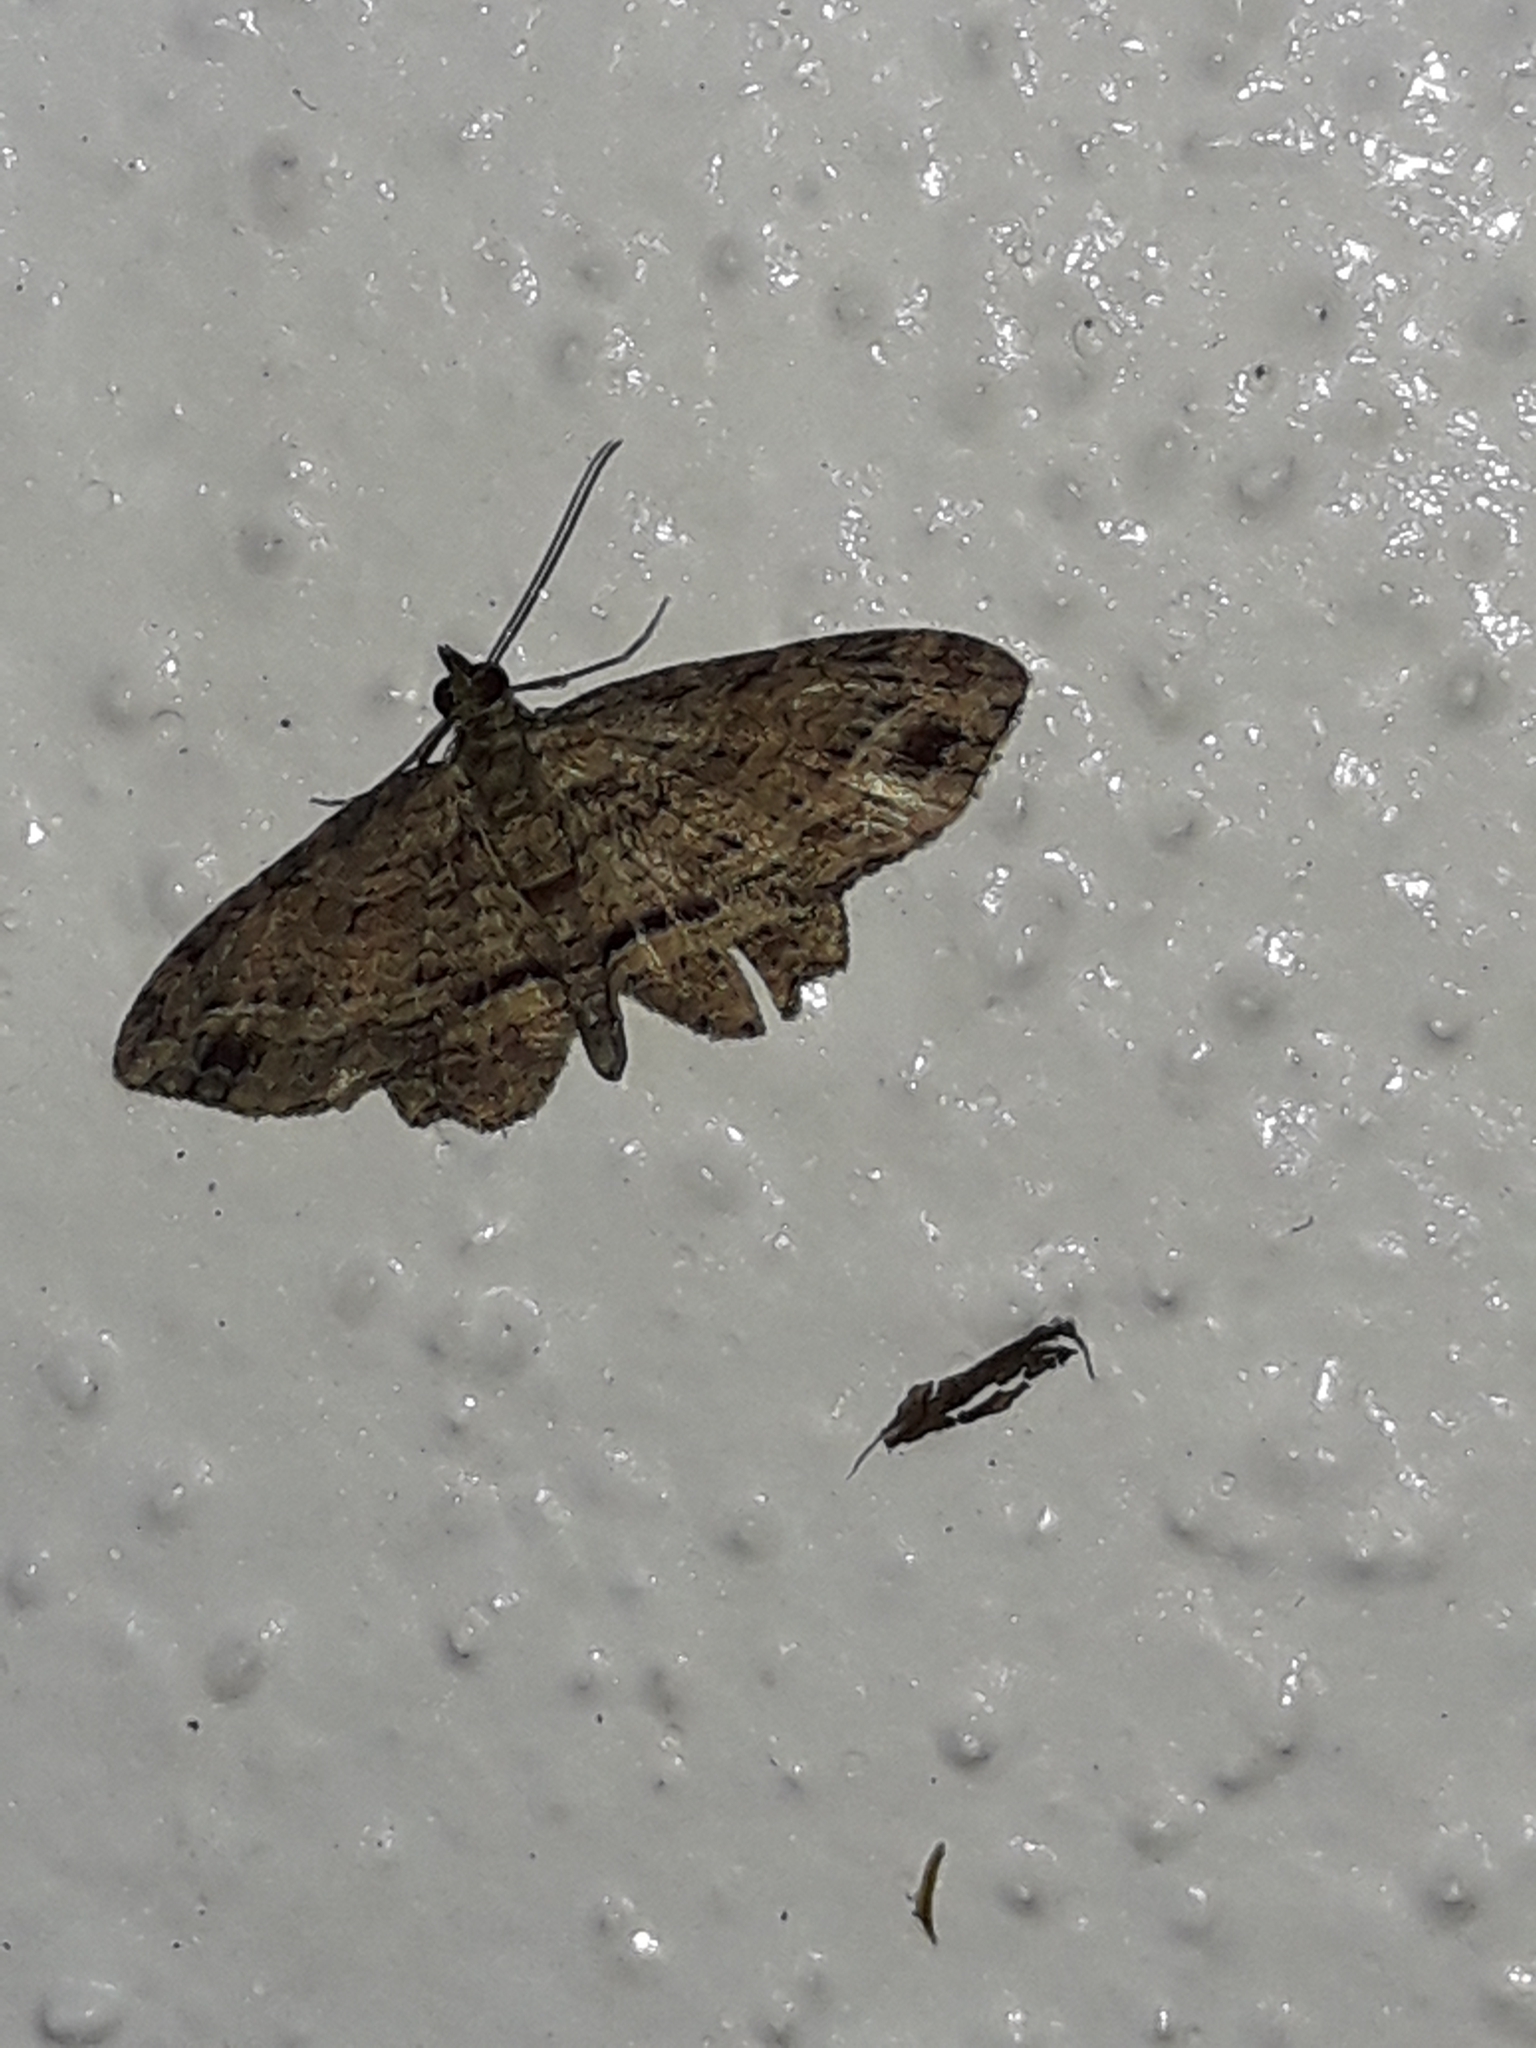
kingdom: Animalia
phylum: Arthropoda
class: Insecta
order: Lepidoptera
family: Geometridae
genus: Chloroclystis
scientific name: Chloroclystis filata
